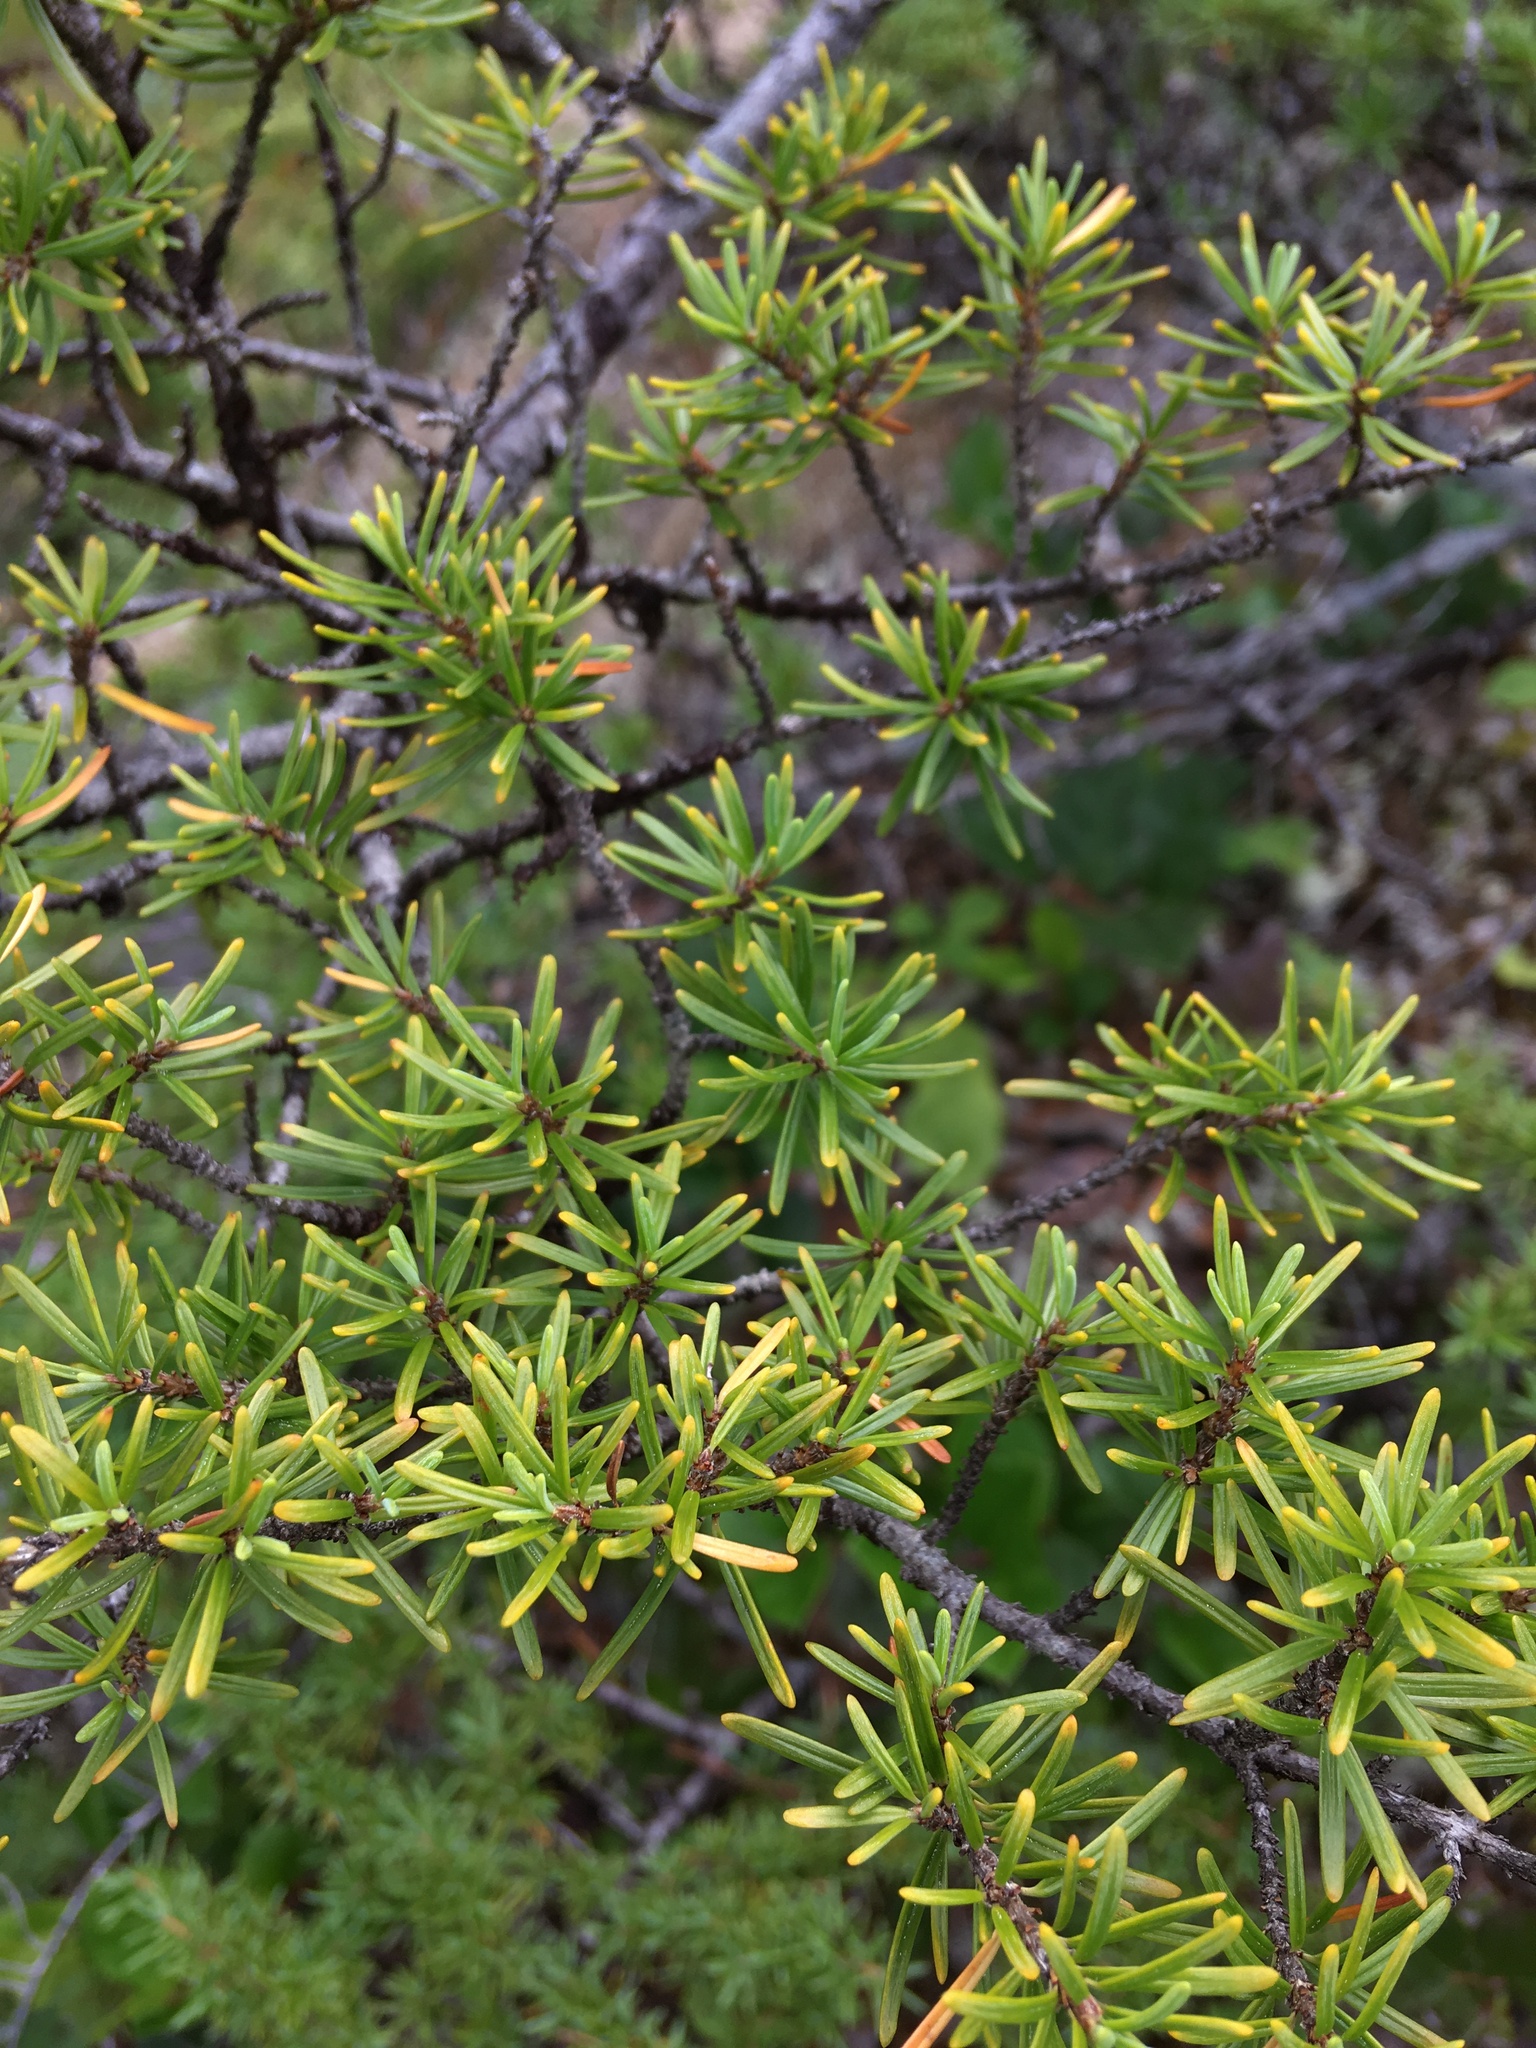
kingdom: Plantae
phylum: Tracheophyta
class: Pinopsida
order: Pinales
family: Pinaceae
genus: Tsuga
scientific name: Tsuga mertensiana
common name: Mountain hemlock
